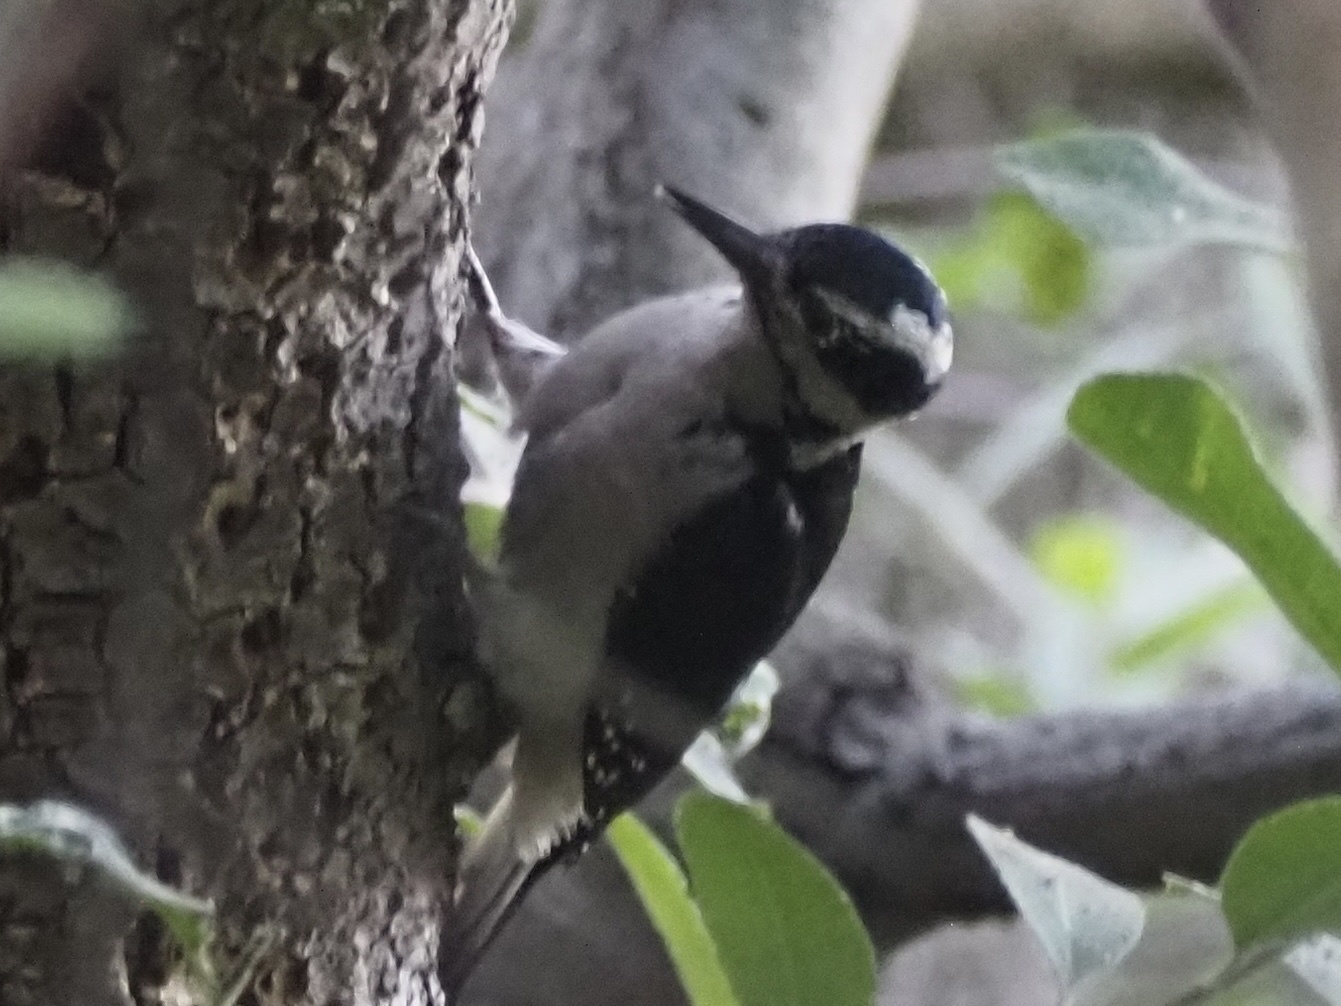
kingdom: Animalia
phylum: Chordata
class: Aves
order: Piciformes
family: Picidae
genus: Leuconotopicus
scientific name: Leuconotopicus villosus
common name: Hairy woodpecker
